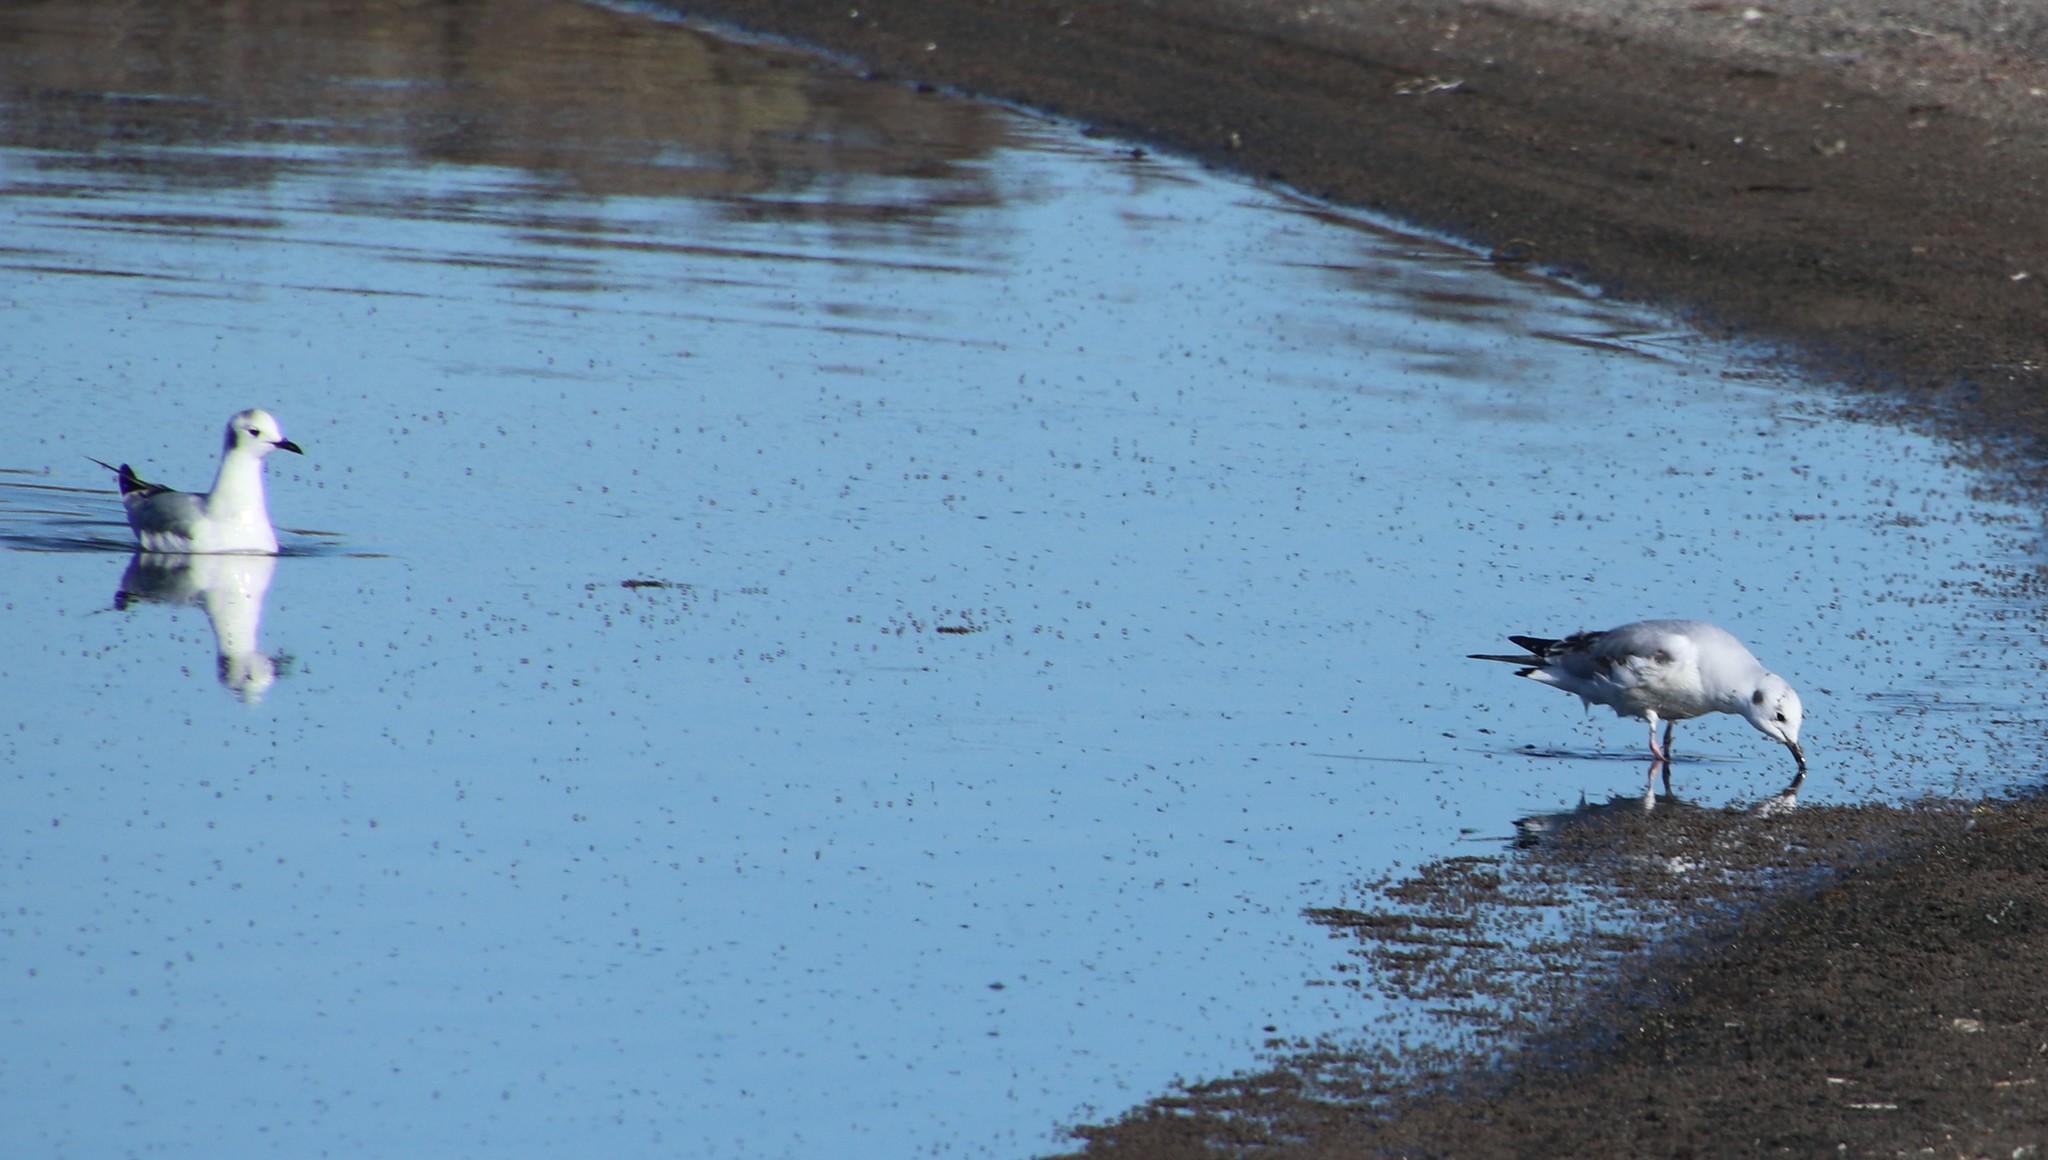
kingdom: Animalia
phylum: Chordata
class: Aves
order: Charadriiformes
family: Laridae
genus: Chroicocephalus
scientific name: Chroicocephalus philadelphia
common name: Bonaparte's gull
